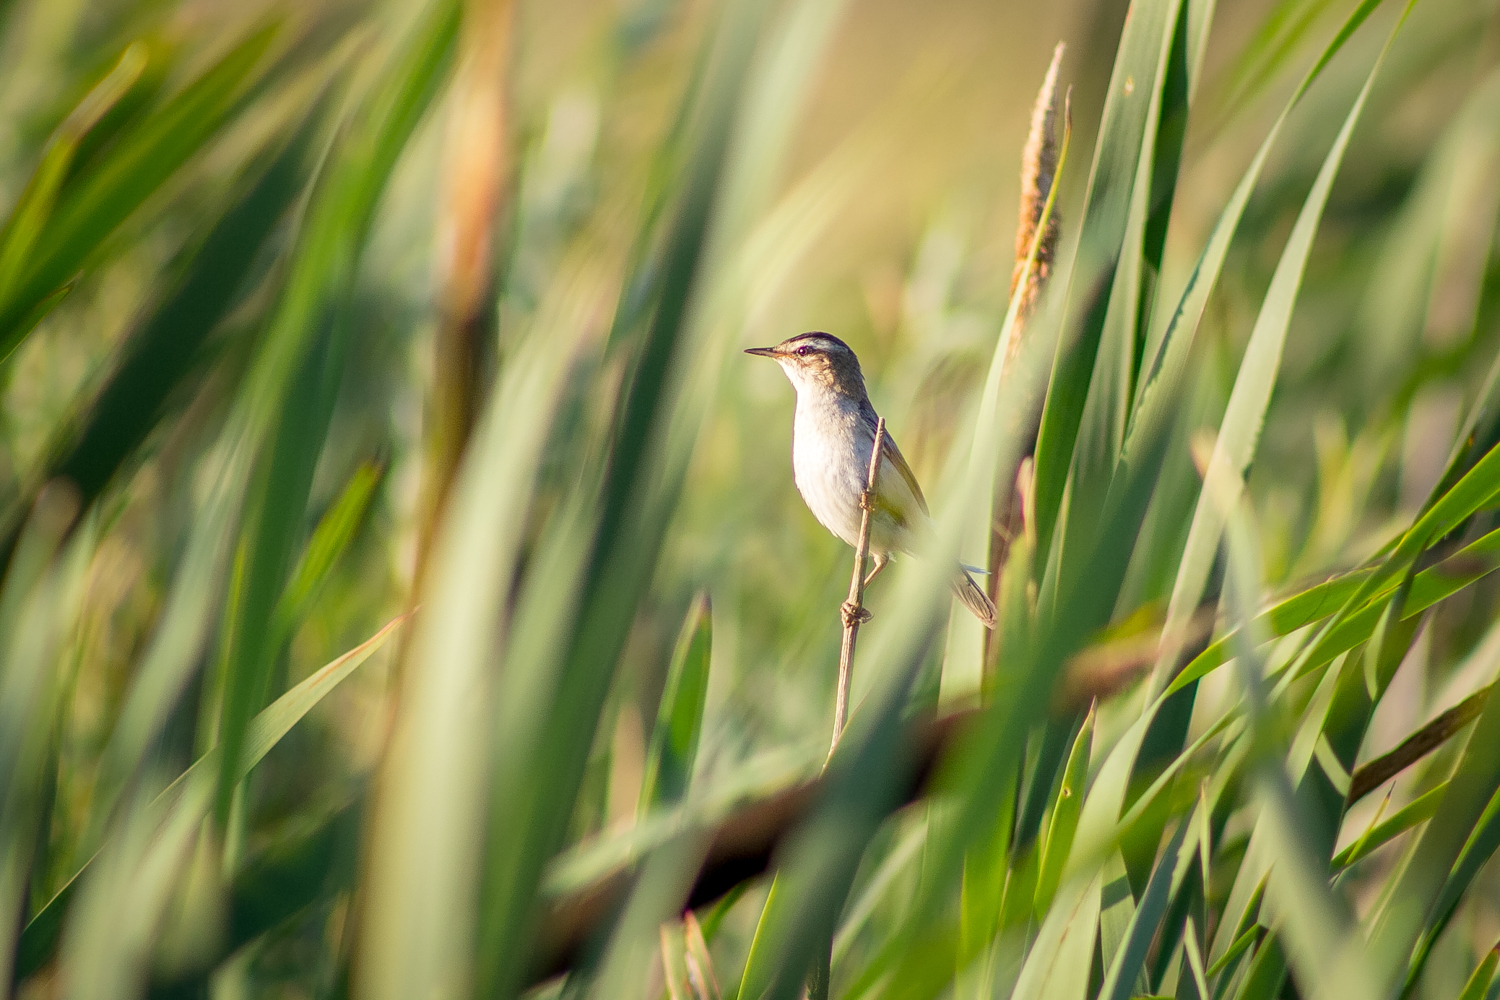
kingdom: Animalia
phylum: Chordata
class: Aves
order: Passeriformes
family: Acrocephalidae
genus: Acrocephalus
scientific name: Acrocephalus schoenobaenus
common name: Sedge warbler
